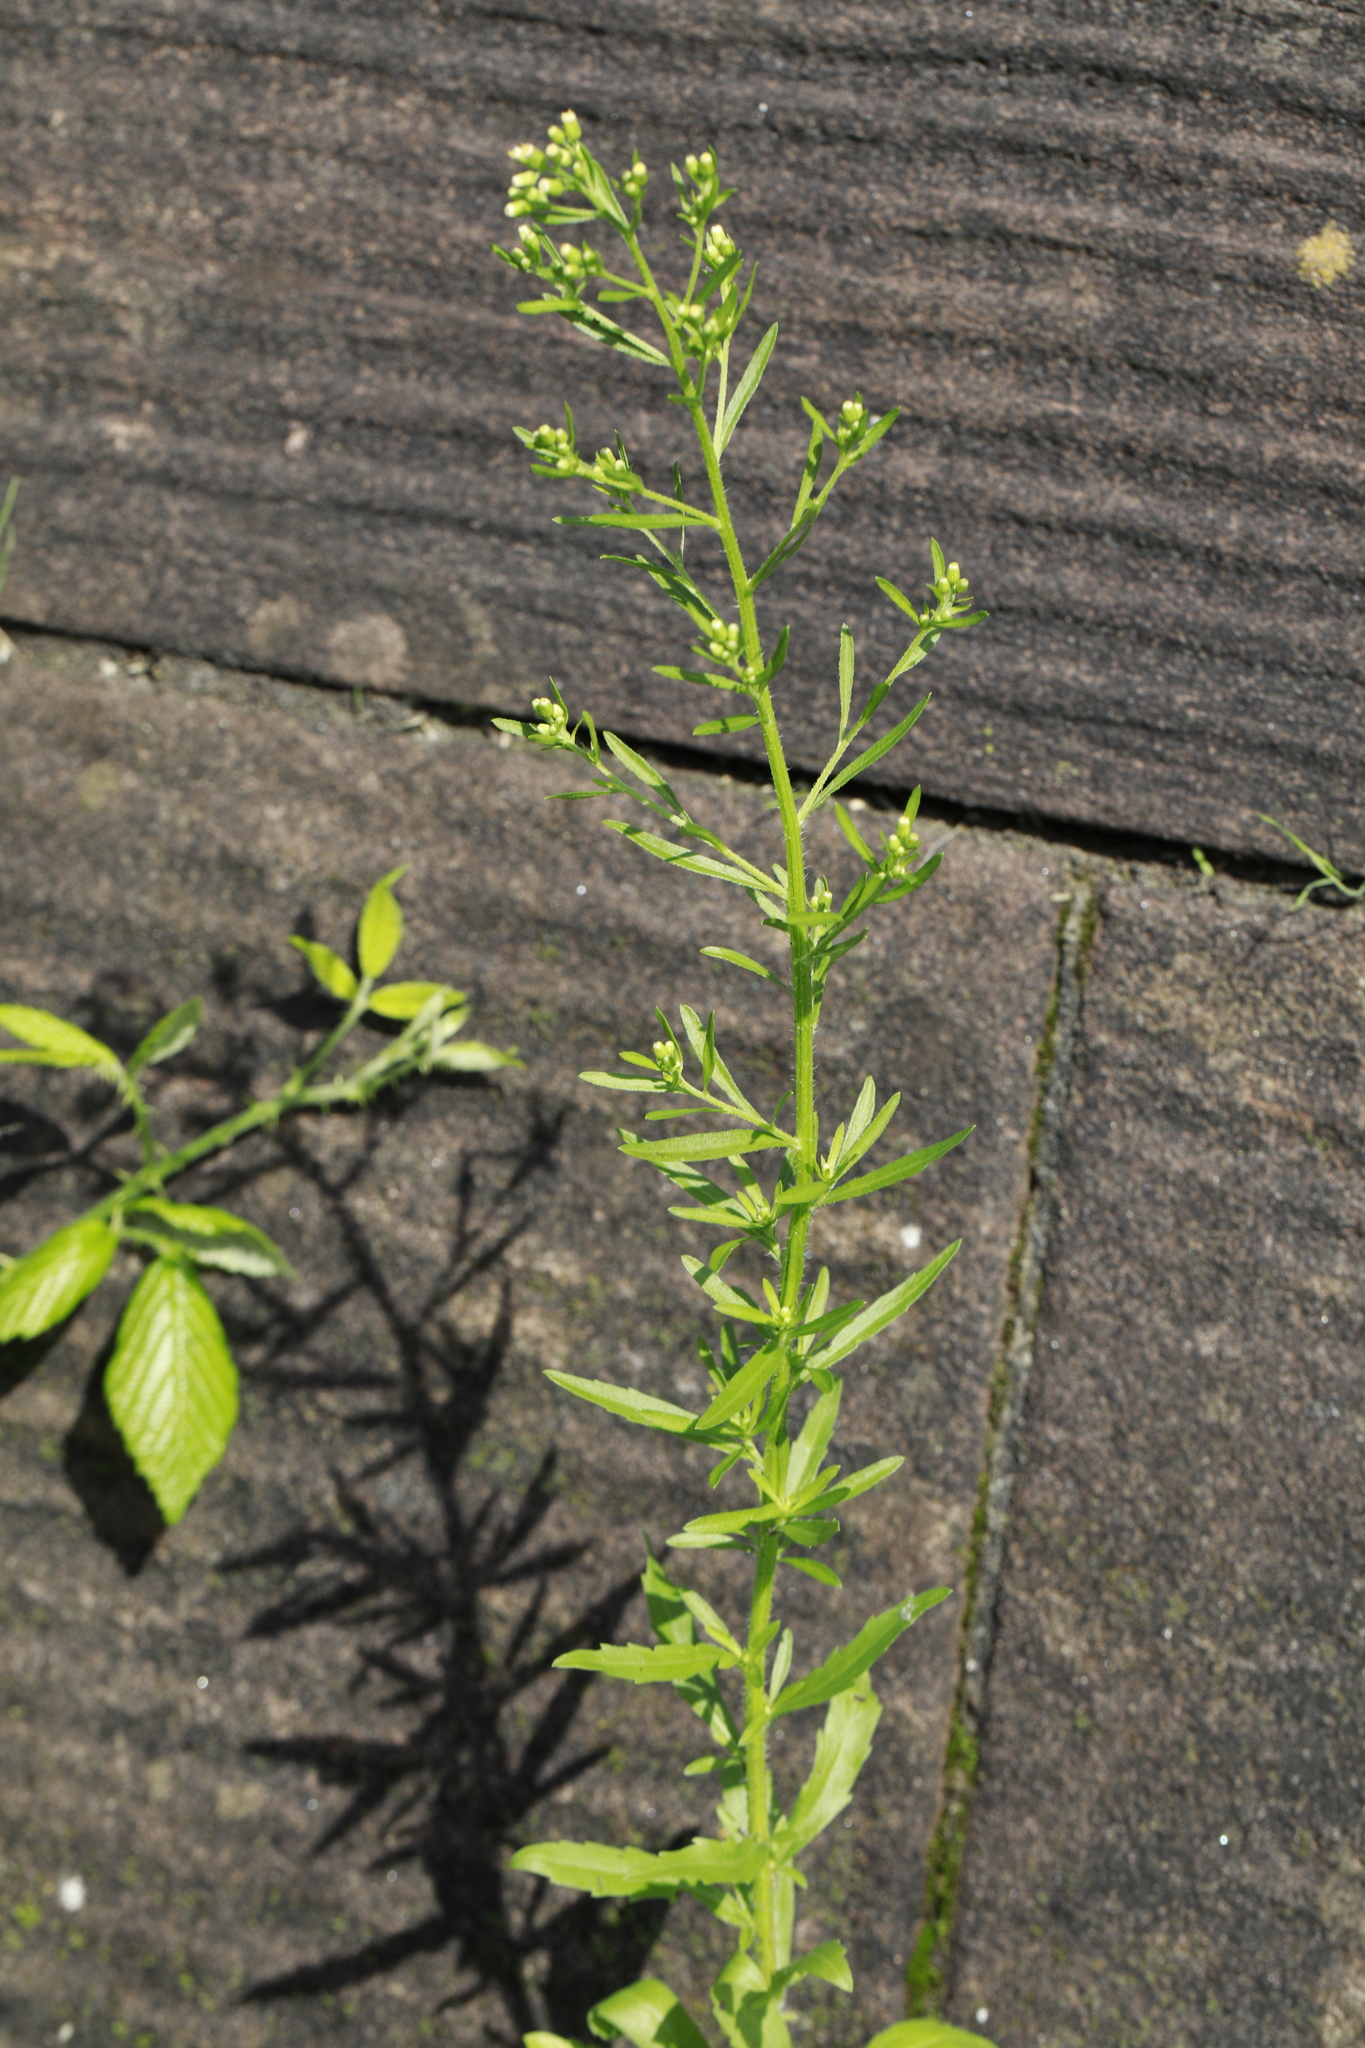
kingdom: Plantae
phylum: Tracheophyta
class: Magnoliopsida
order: Asterales
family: Asteraceae
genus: Erigeron
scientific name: Erigeron canadensis
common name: Canadian fleabane
